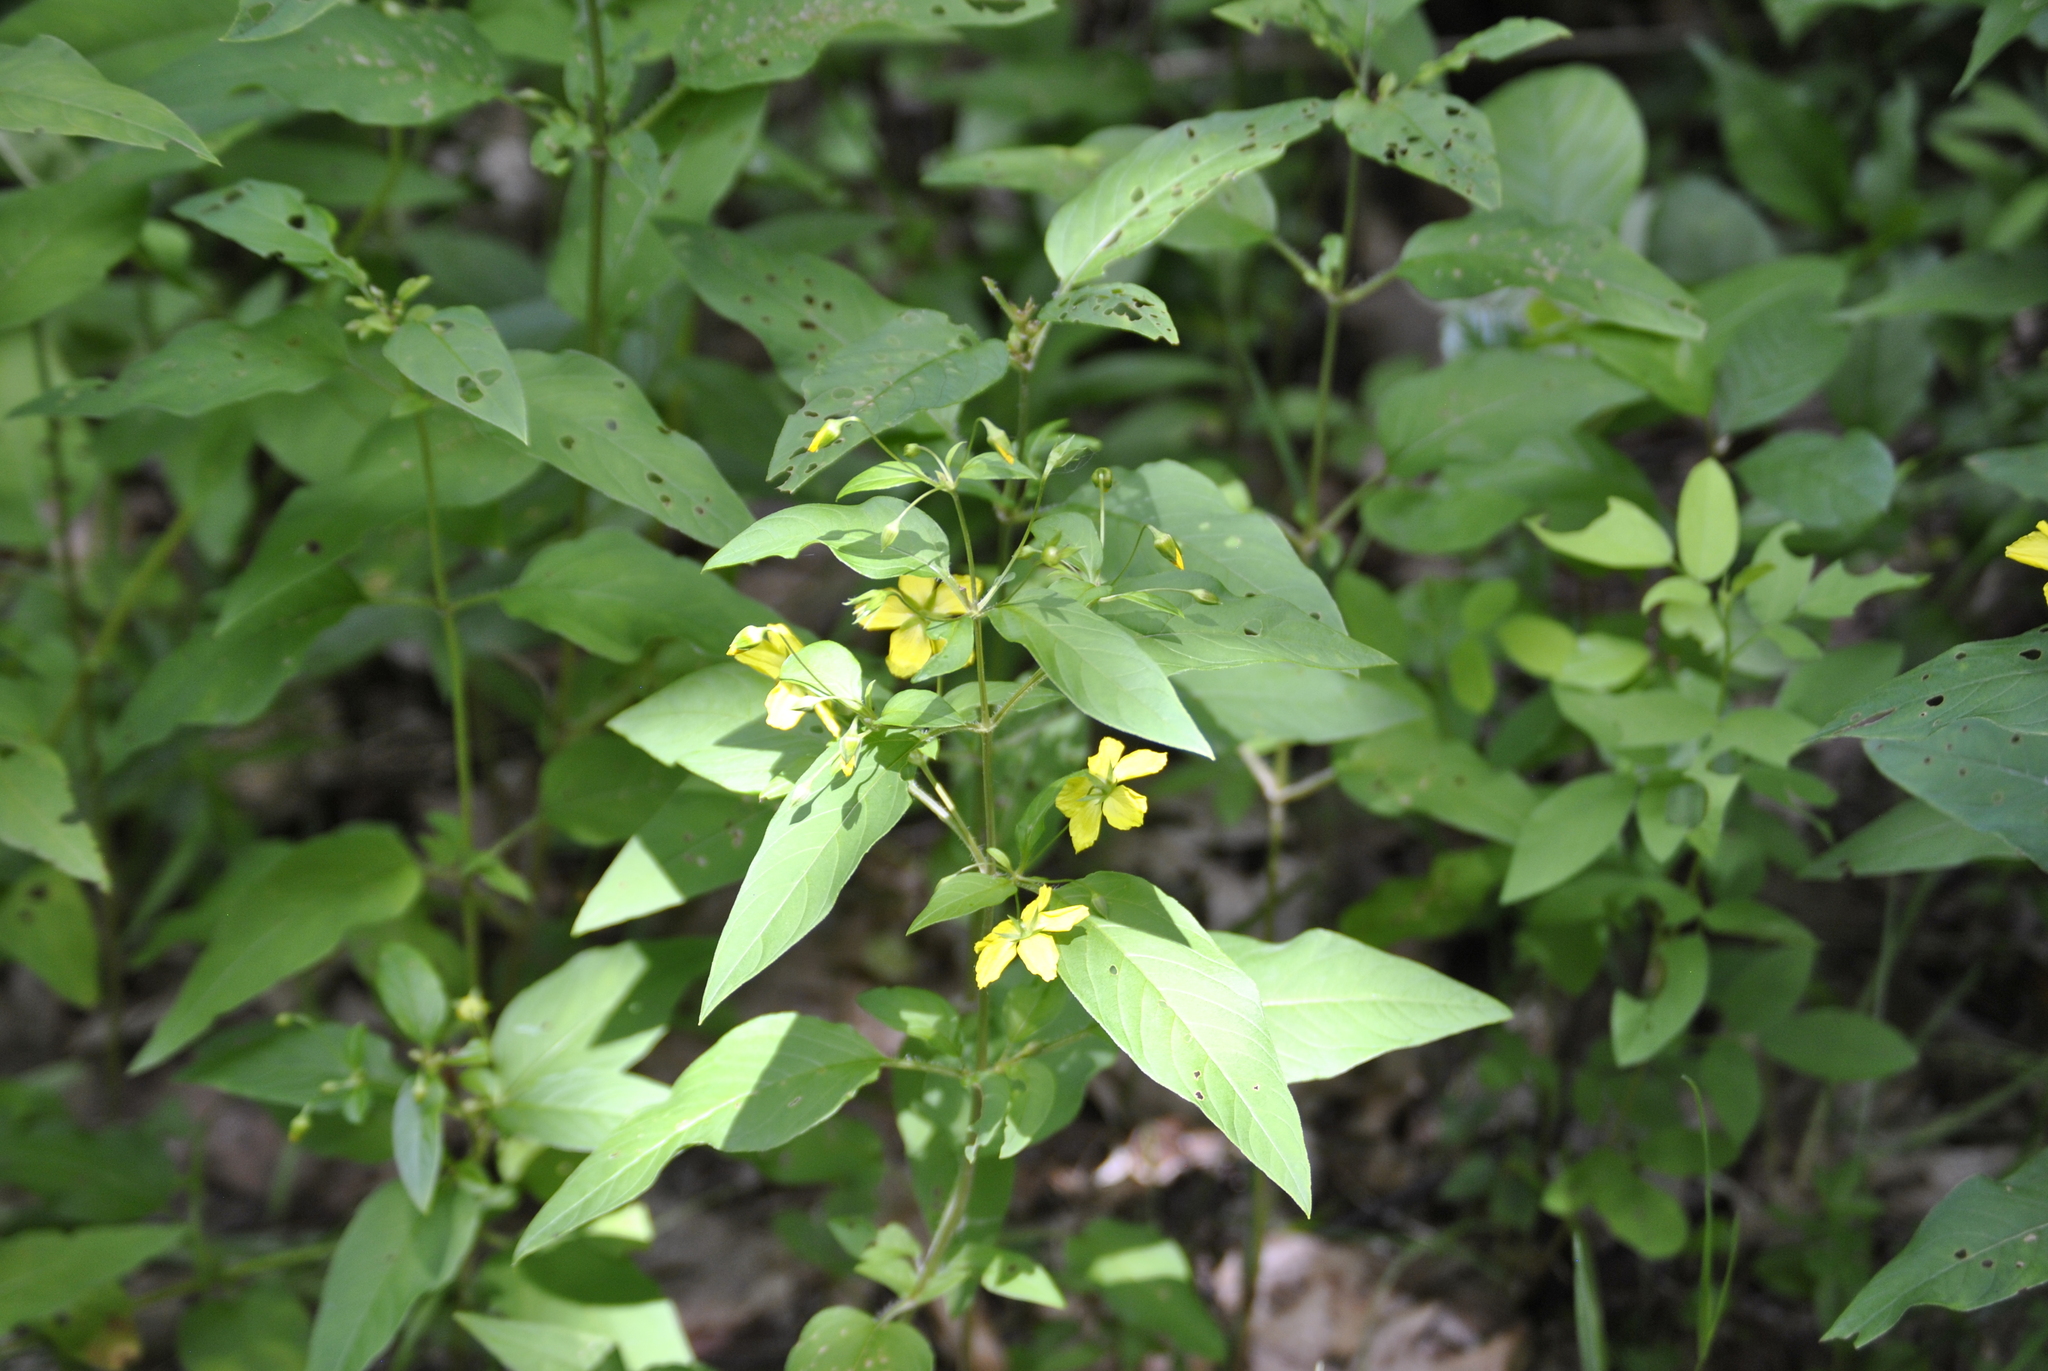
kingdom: Plantae
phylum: Tracheophyta
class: Magnoliopsida
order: Ericales
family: Primulaceae
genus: Lysimachia
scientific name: Lysimachia ciliata
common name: Fringed loosestrife
